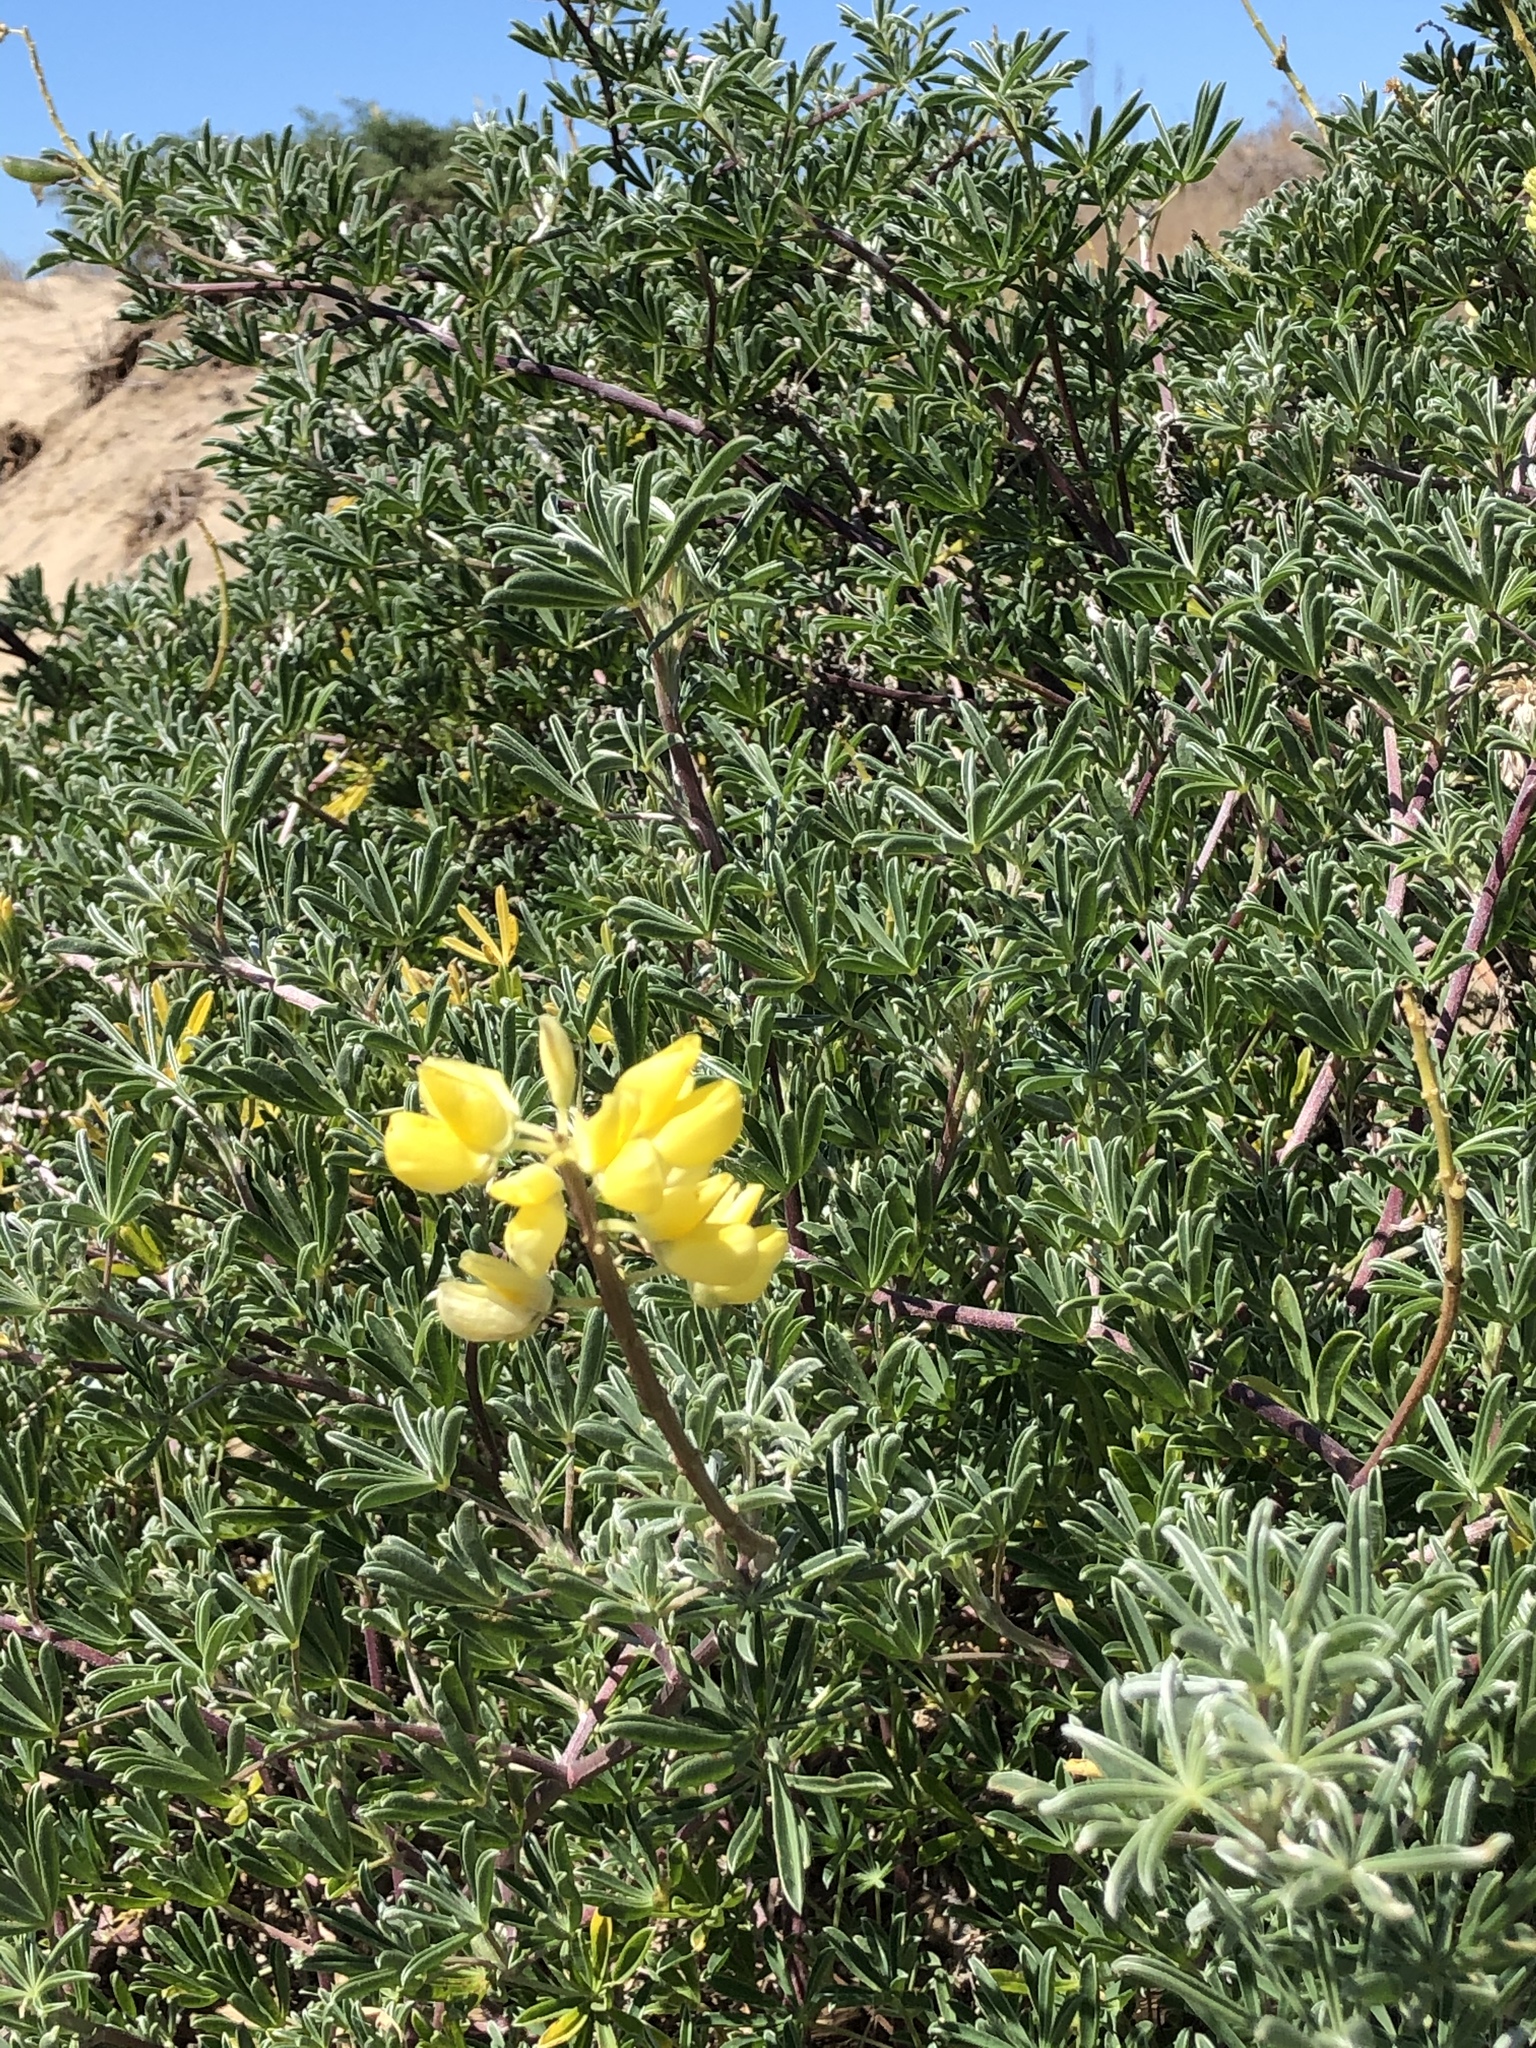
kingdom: Plantae
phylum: Tracheophyta
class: Magnoliopsida
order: Fabales
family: Fabaceae
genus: Lupinus
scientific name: Lupinus arboreus
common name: Yellow bush lupine
